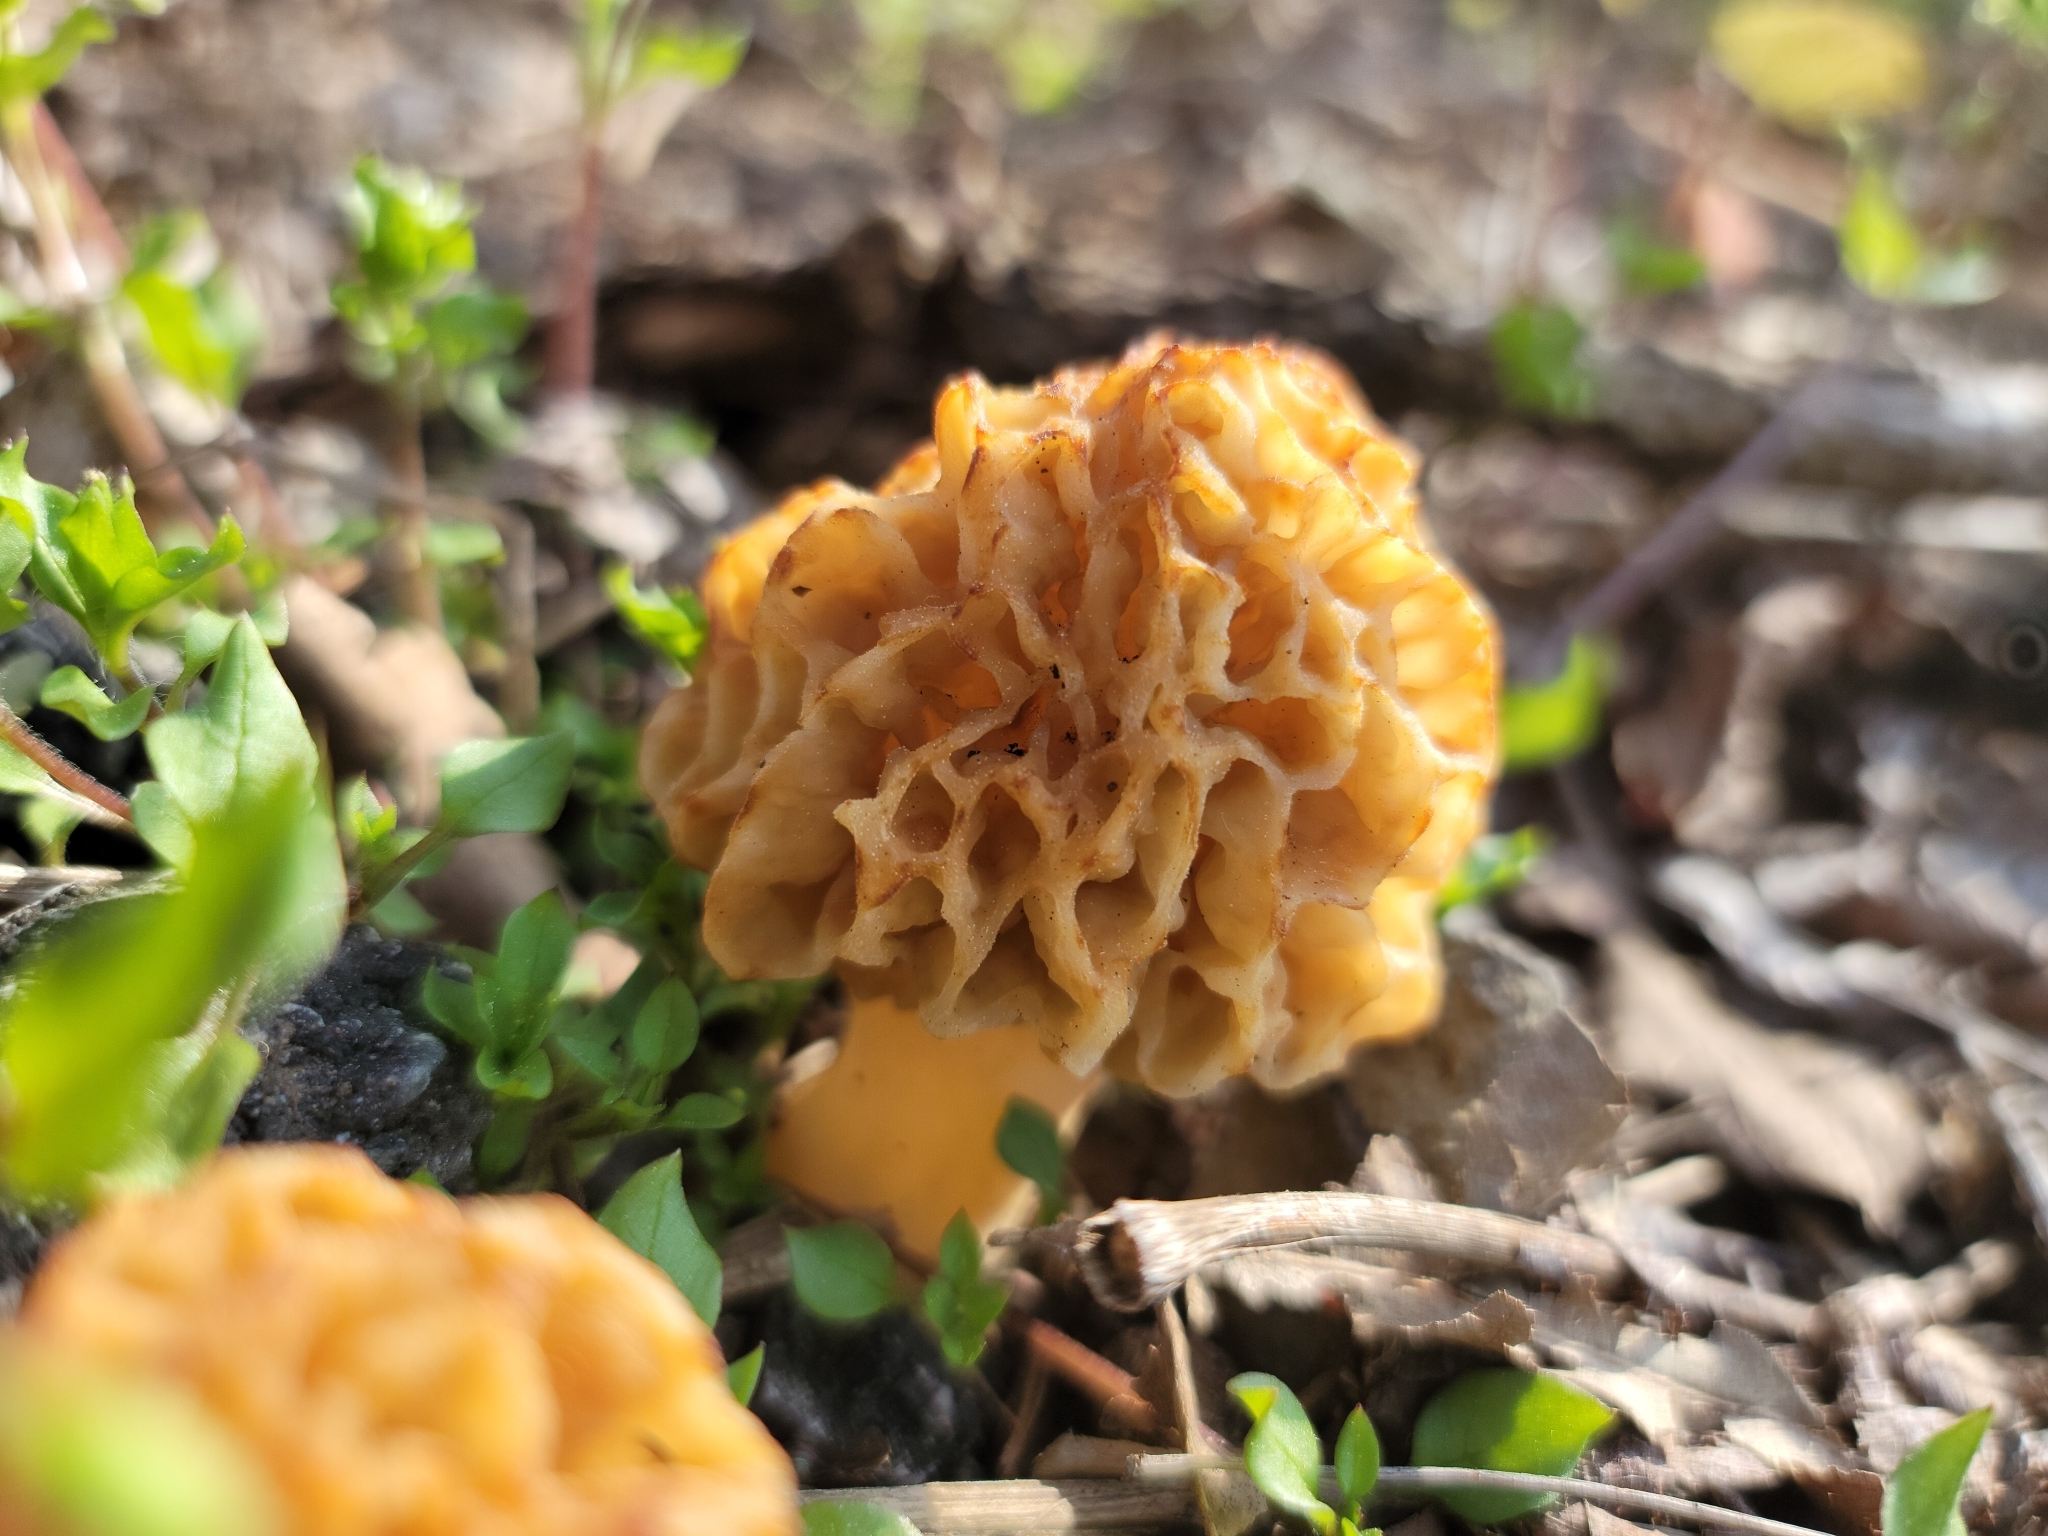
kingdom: Fungi
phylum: Ascomycota
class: Pezizomycetes
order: Pezizales
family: Morchellaceae
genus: Morchella
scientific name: Morchella americana
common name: White morel
